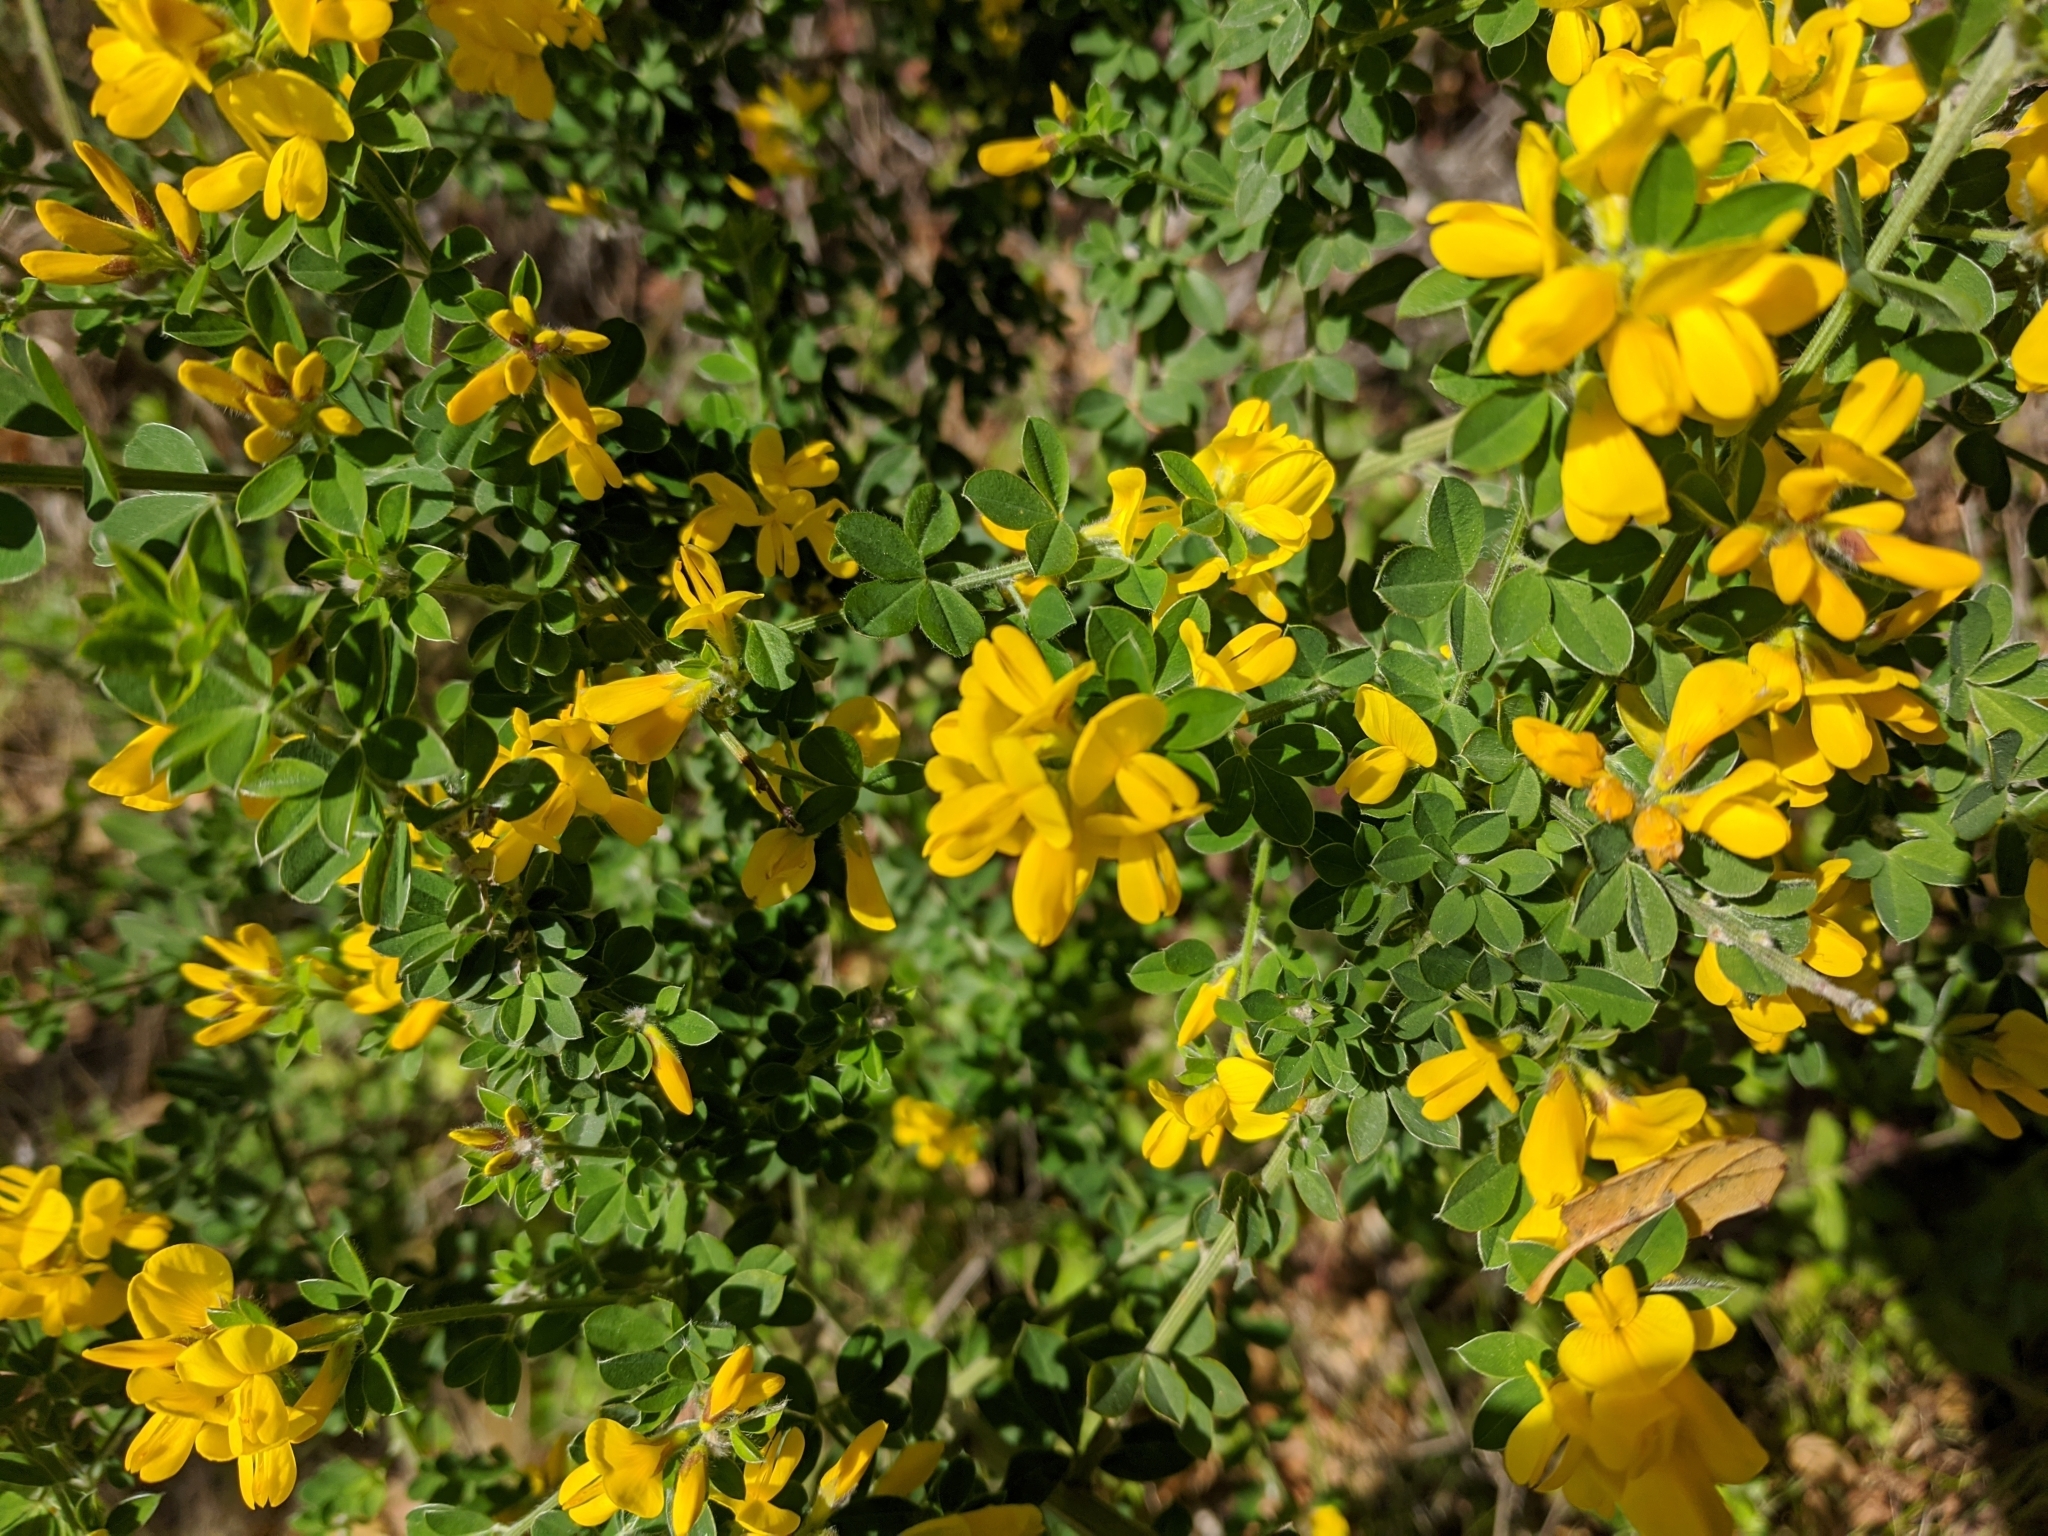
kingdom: Plantae
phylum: Tracheophyta
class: Magnoliopsida
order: Fabales
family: Fabaceae
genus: Genista
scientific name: Genista monspessulana
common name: Montpellier broom
